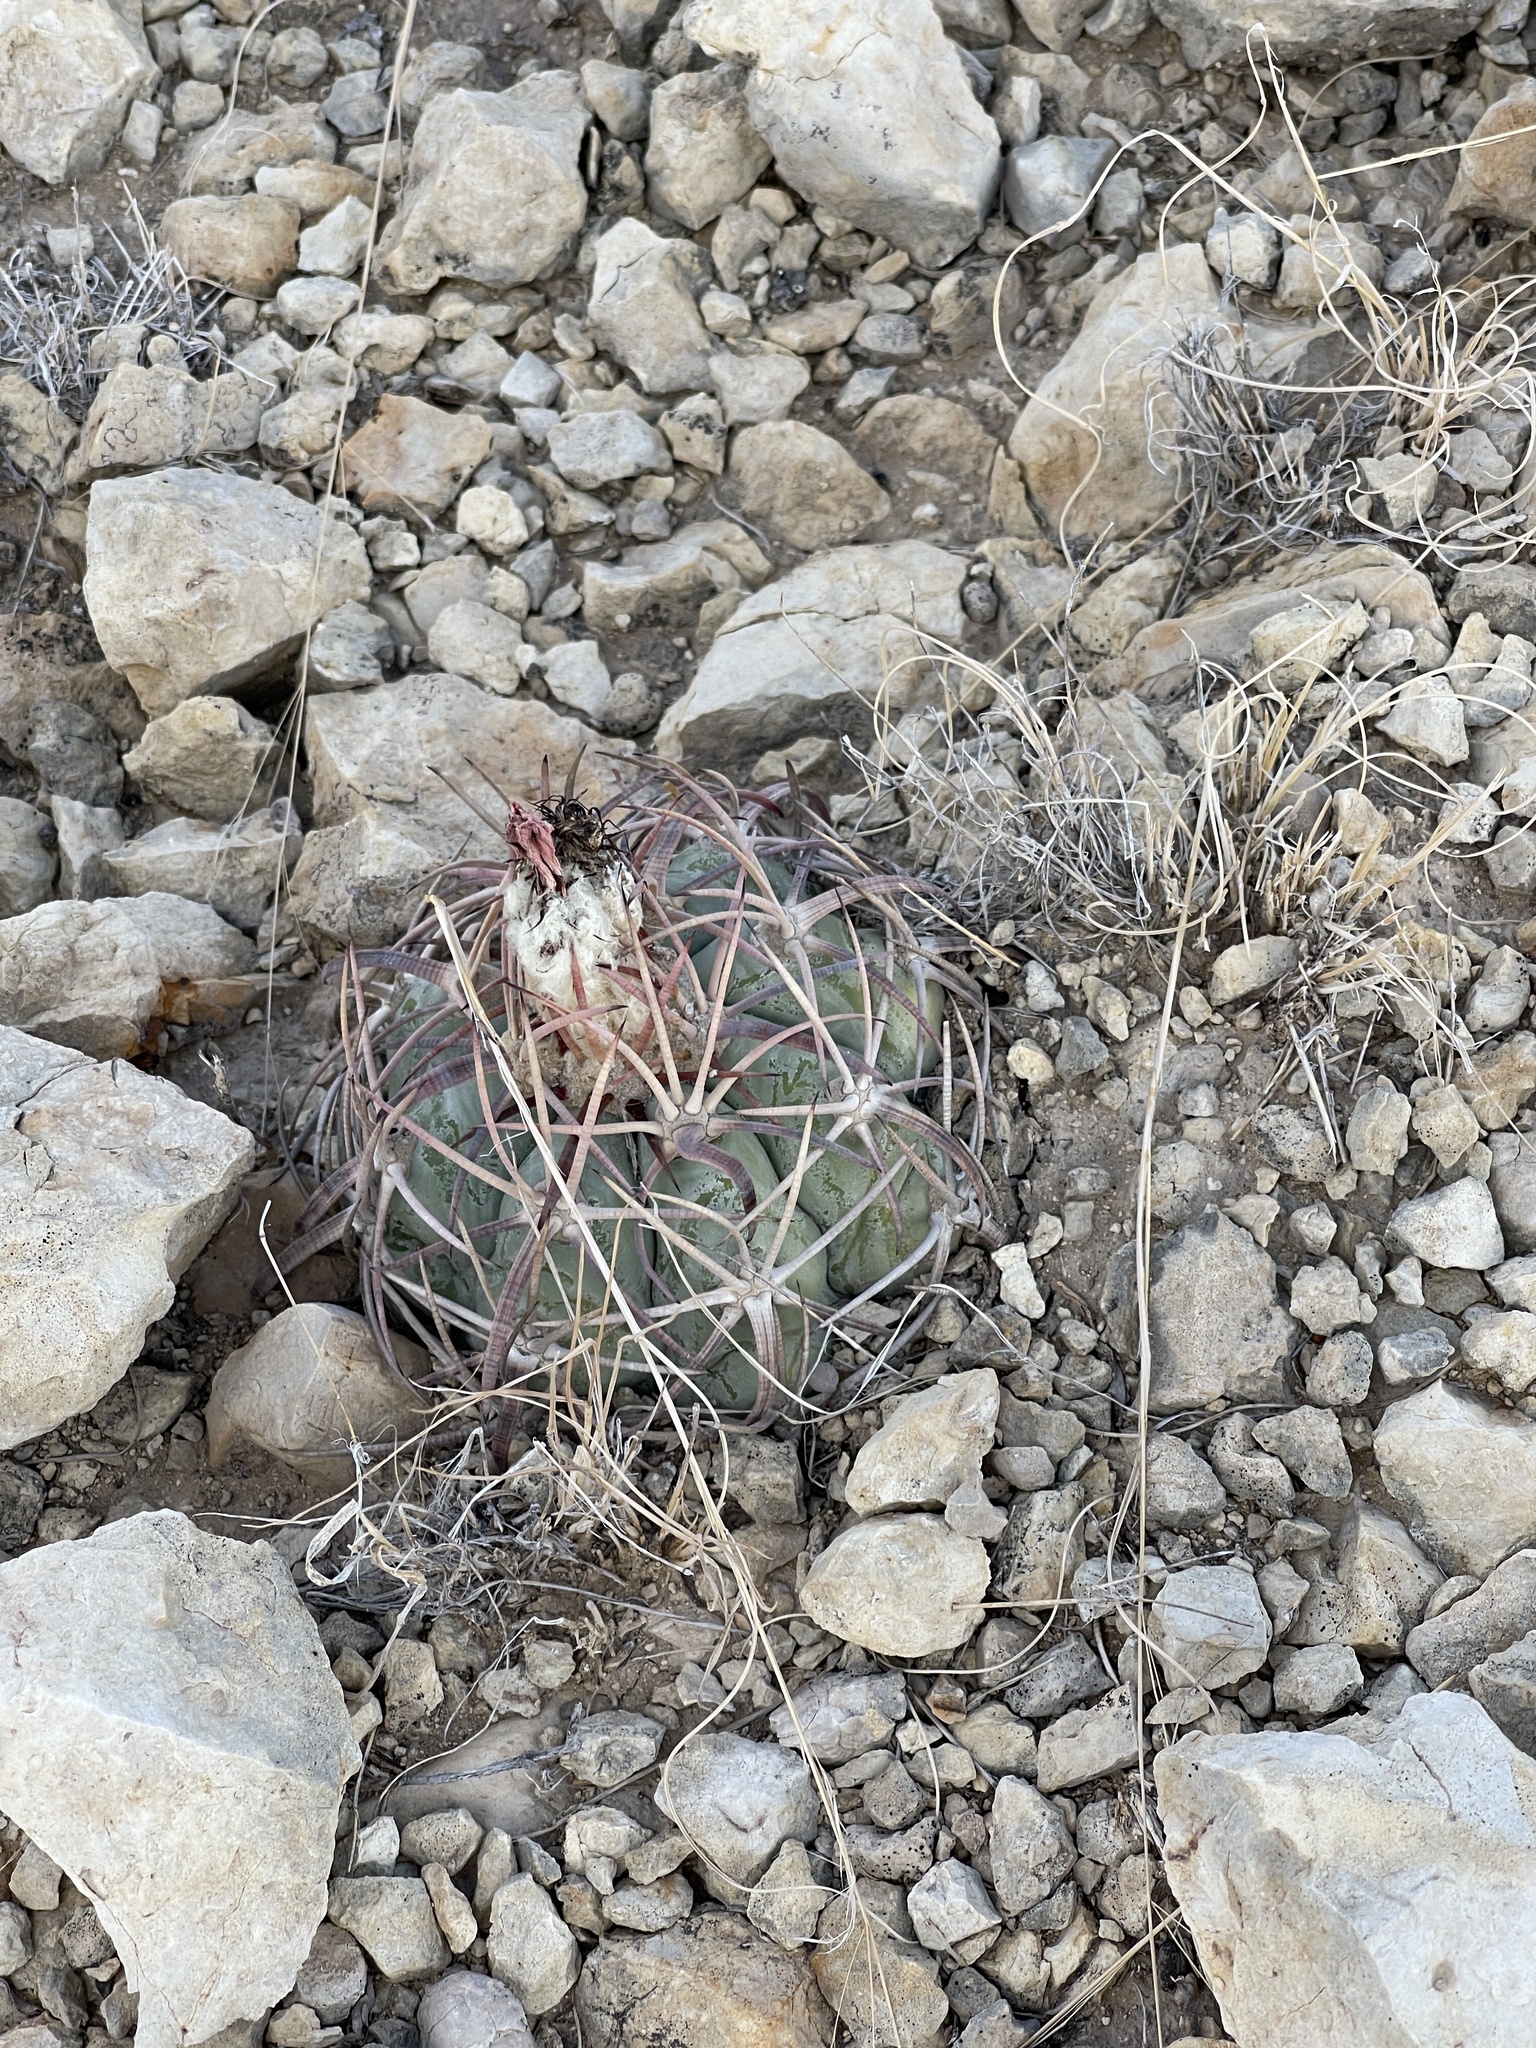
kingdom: Plantae
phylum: Tracheophyta
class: Magnoliopsida
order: Caryophyllales
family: Cactaceae
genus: Echinocactus
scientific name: Echinocactus horizonthalonius
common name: Devilshead
